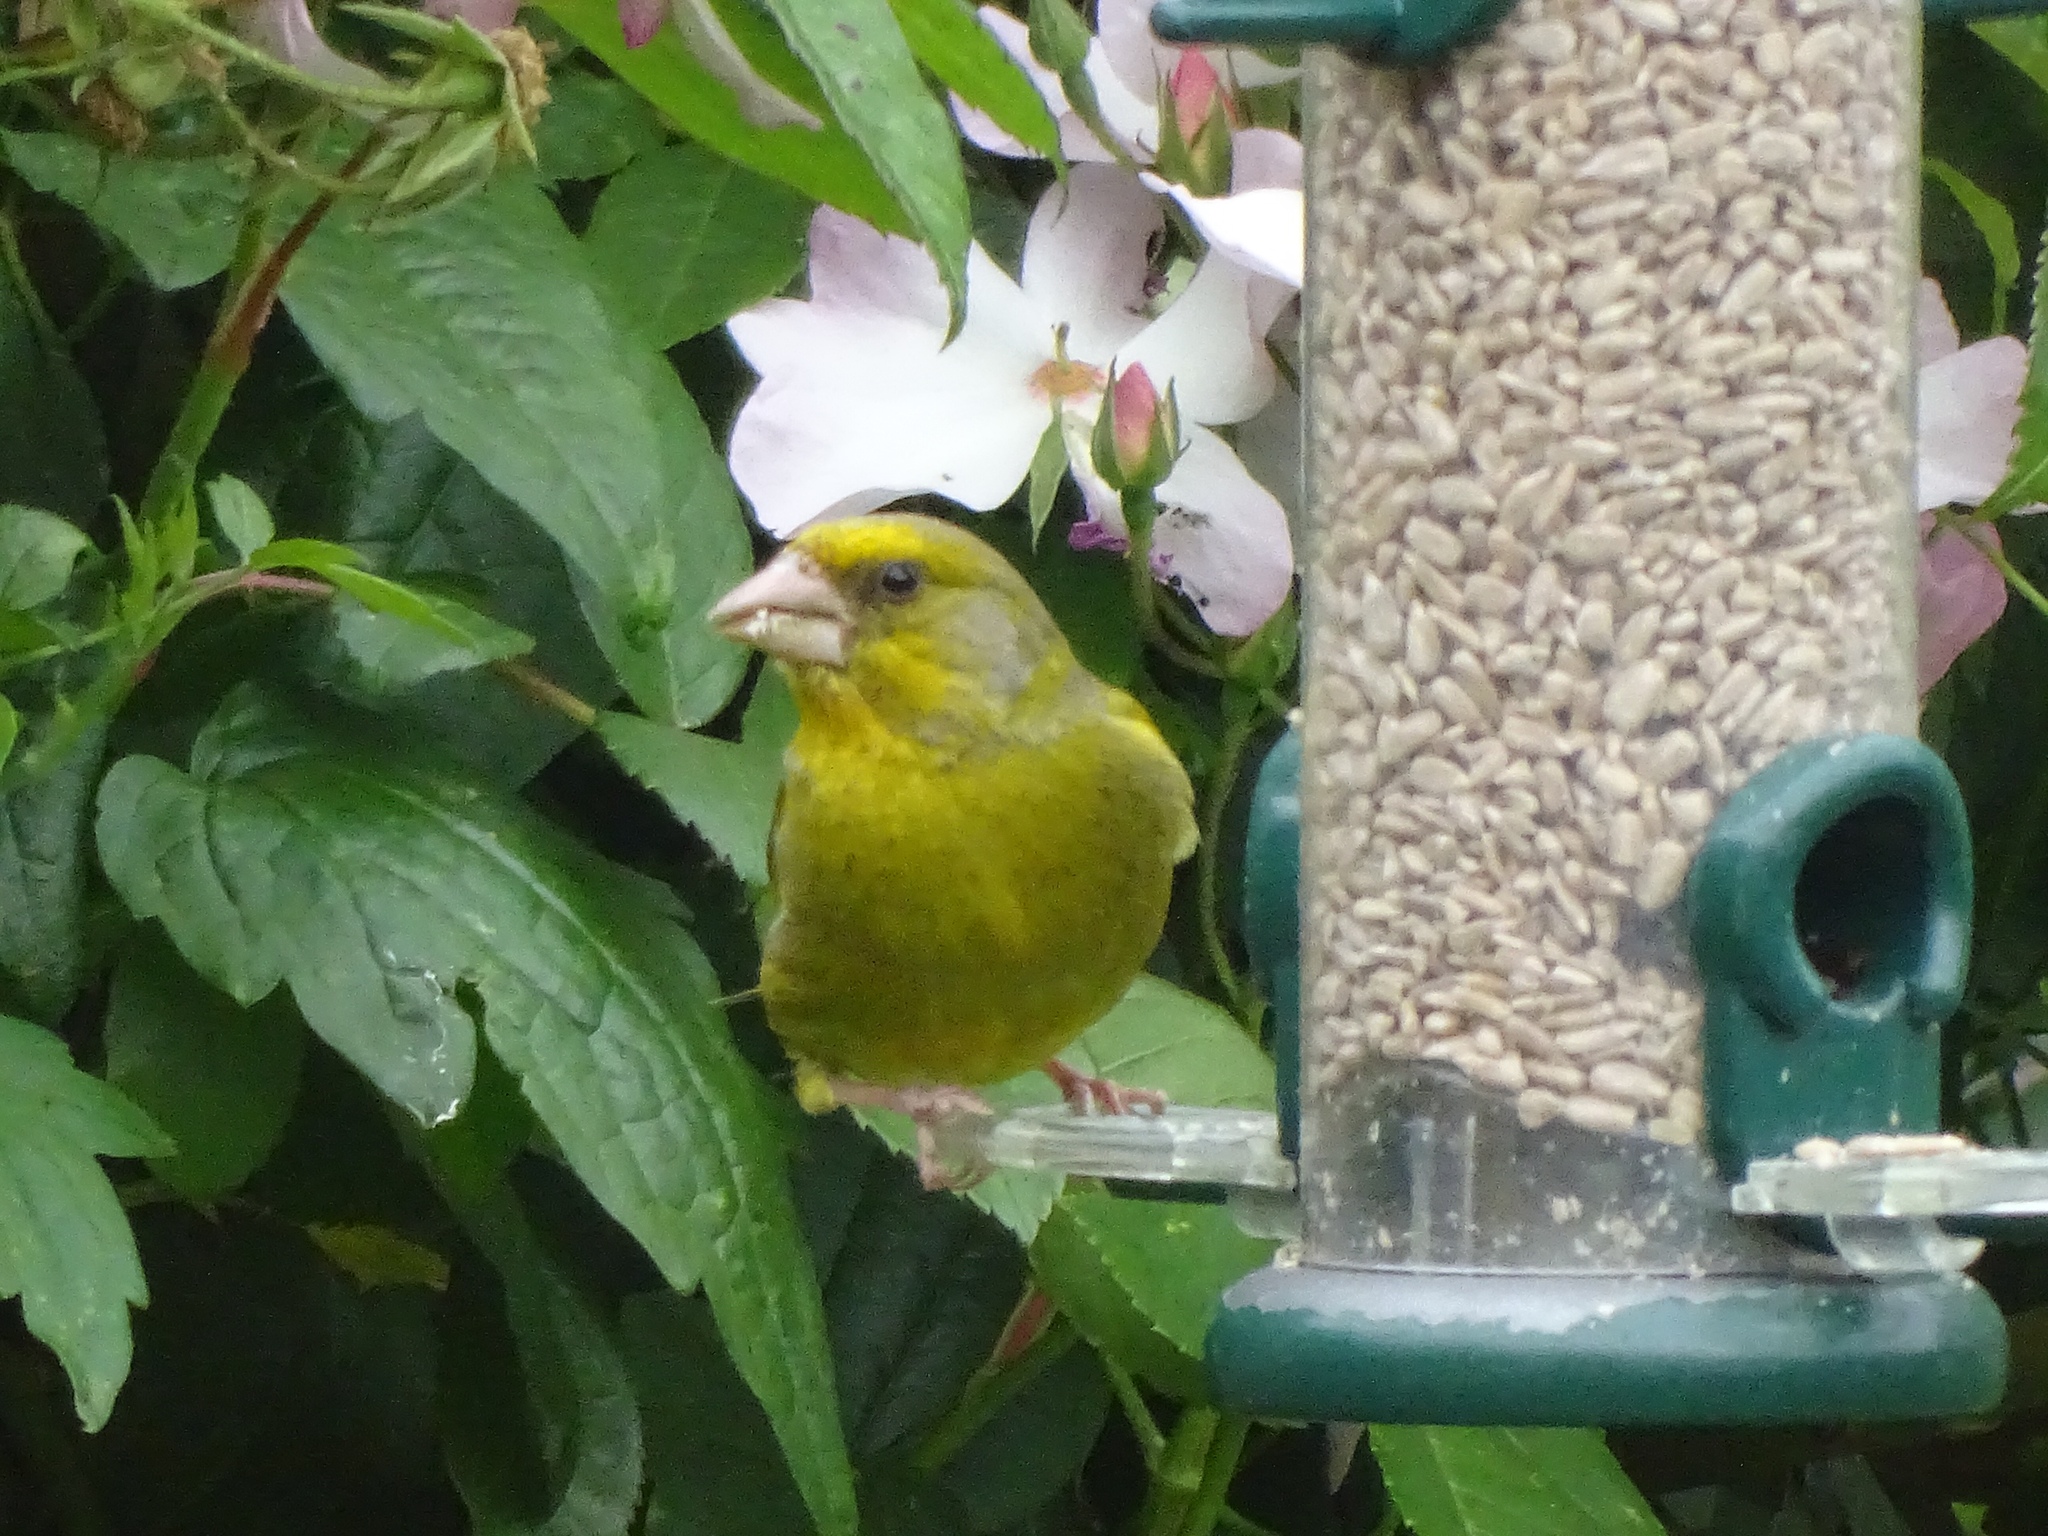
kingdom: Plantae
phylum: Tracheophyta
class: Liliopsida
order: Poales
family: Poaceae
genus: Chloris
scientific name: Chloris chloris
